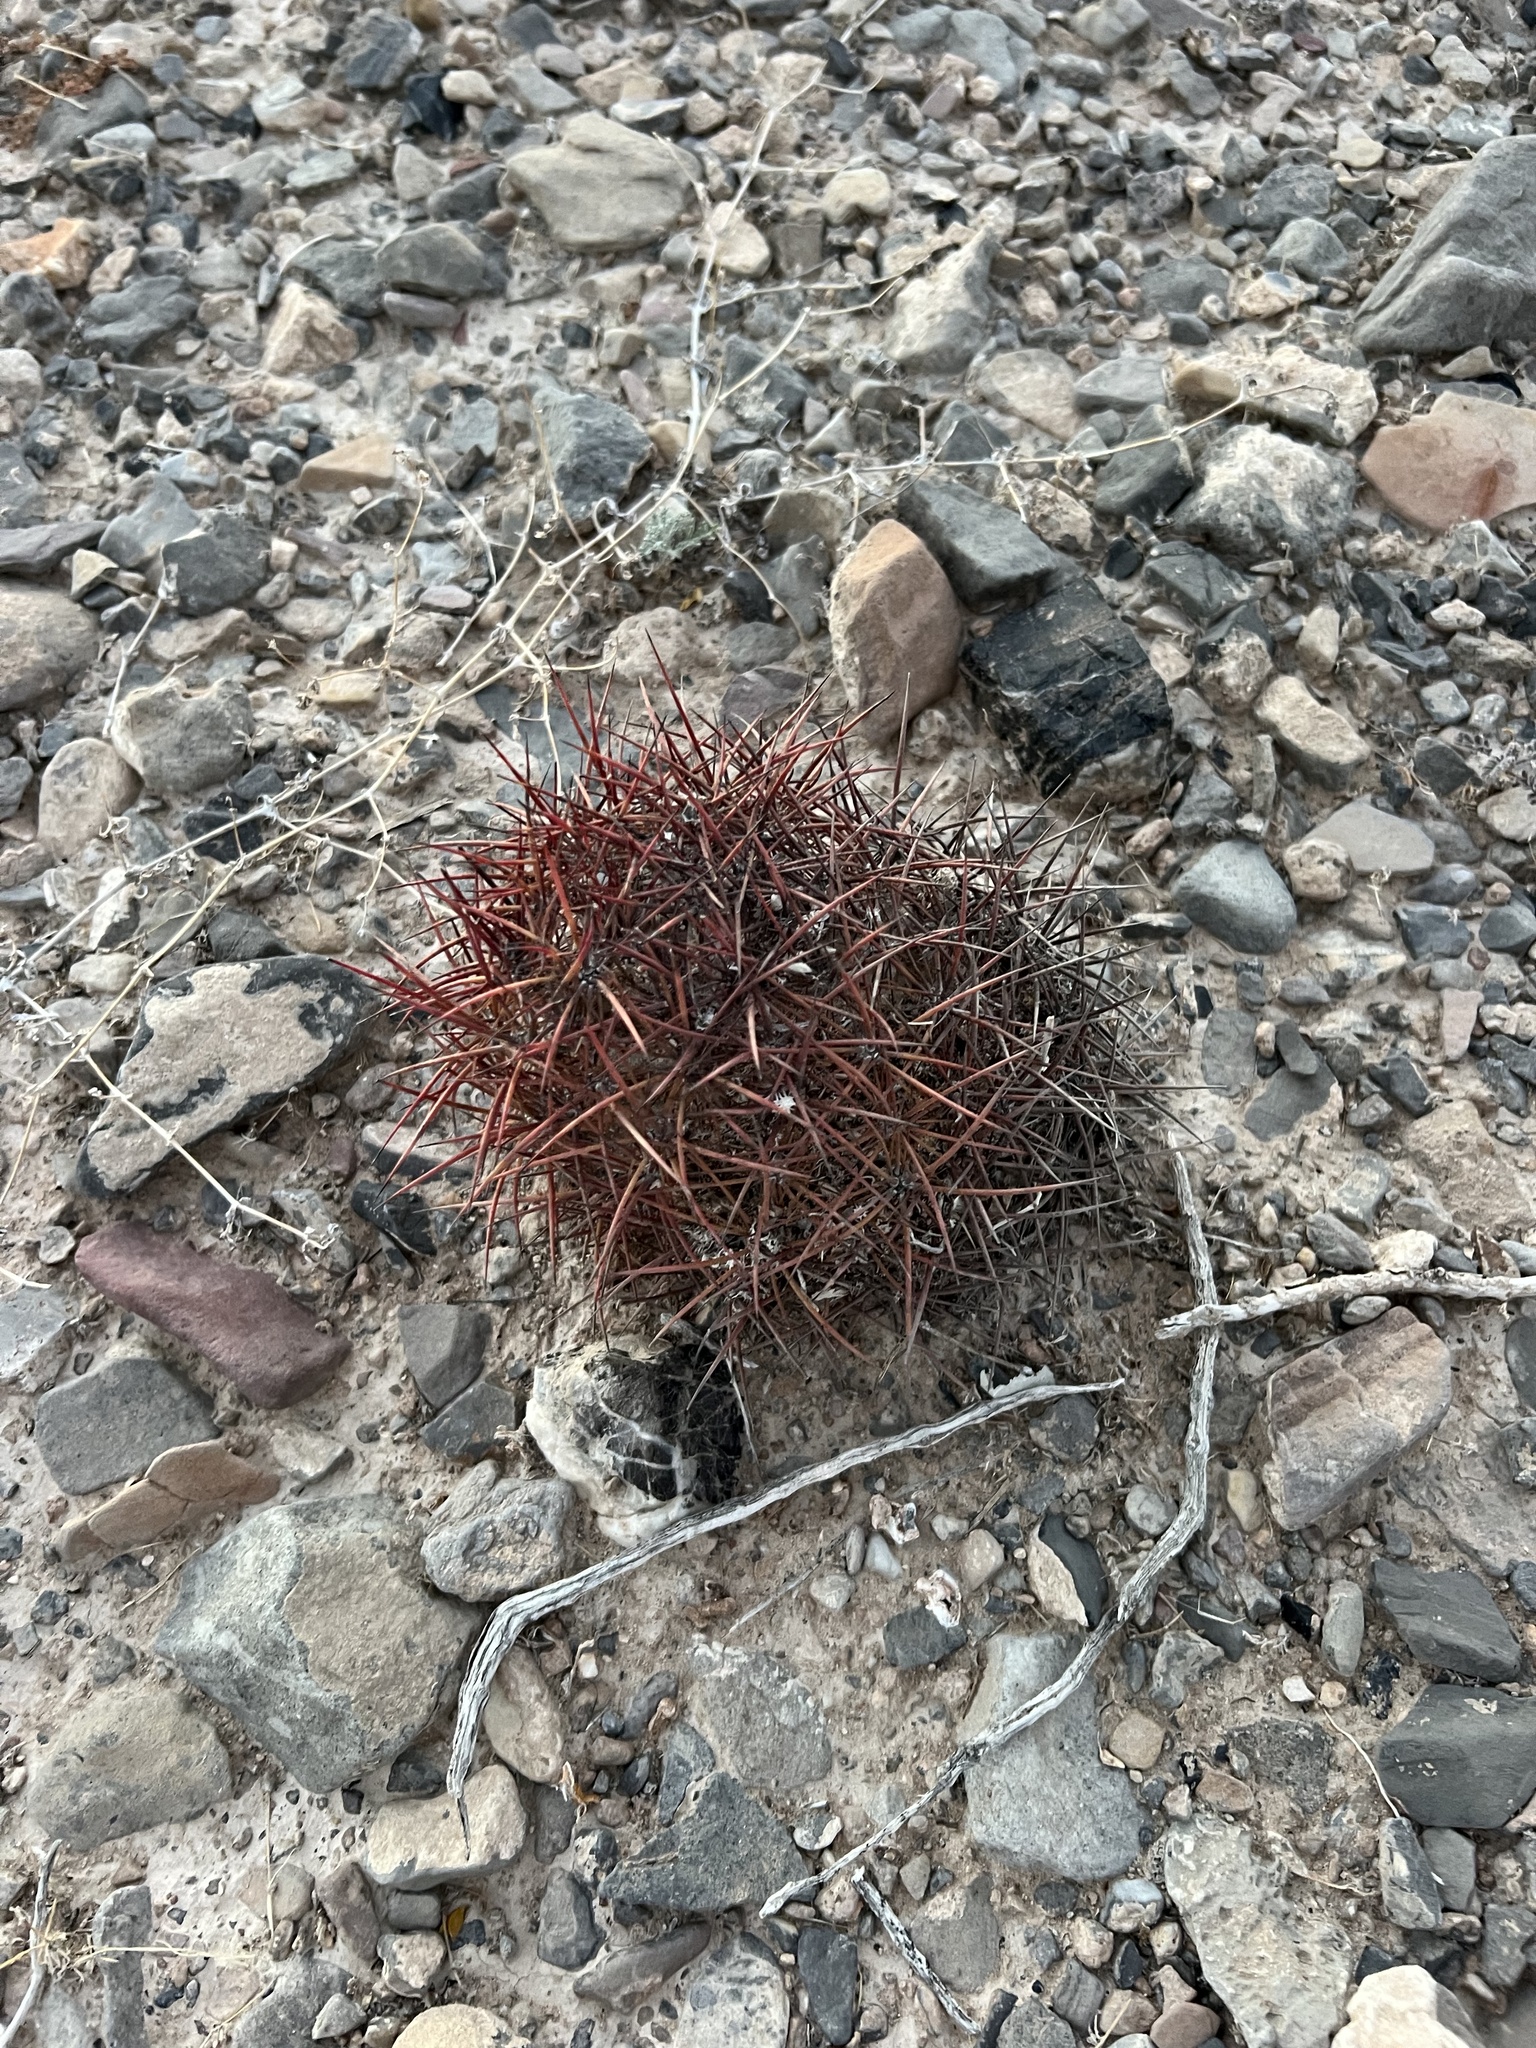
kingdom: Plantae
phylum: Tracheophyta
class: Magnoliopsida
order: Caryophyllales
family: Cactaceae
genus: Sclerocactus
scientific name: Sclerocactus johnsonii
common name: Eight-spine fishhook cactus
